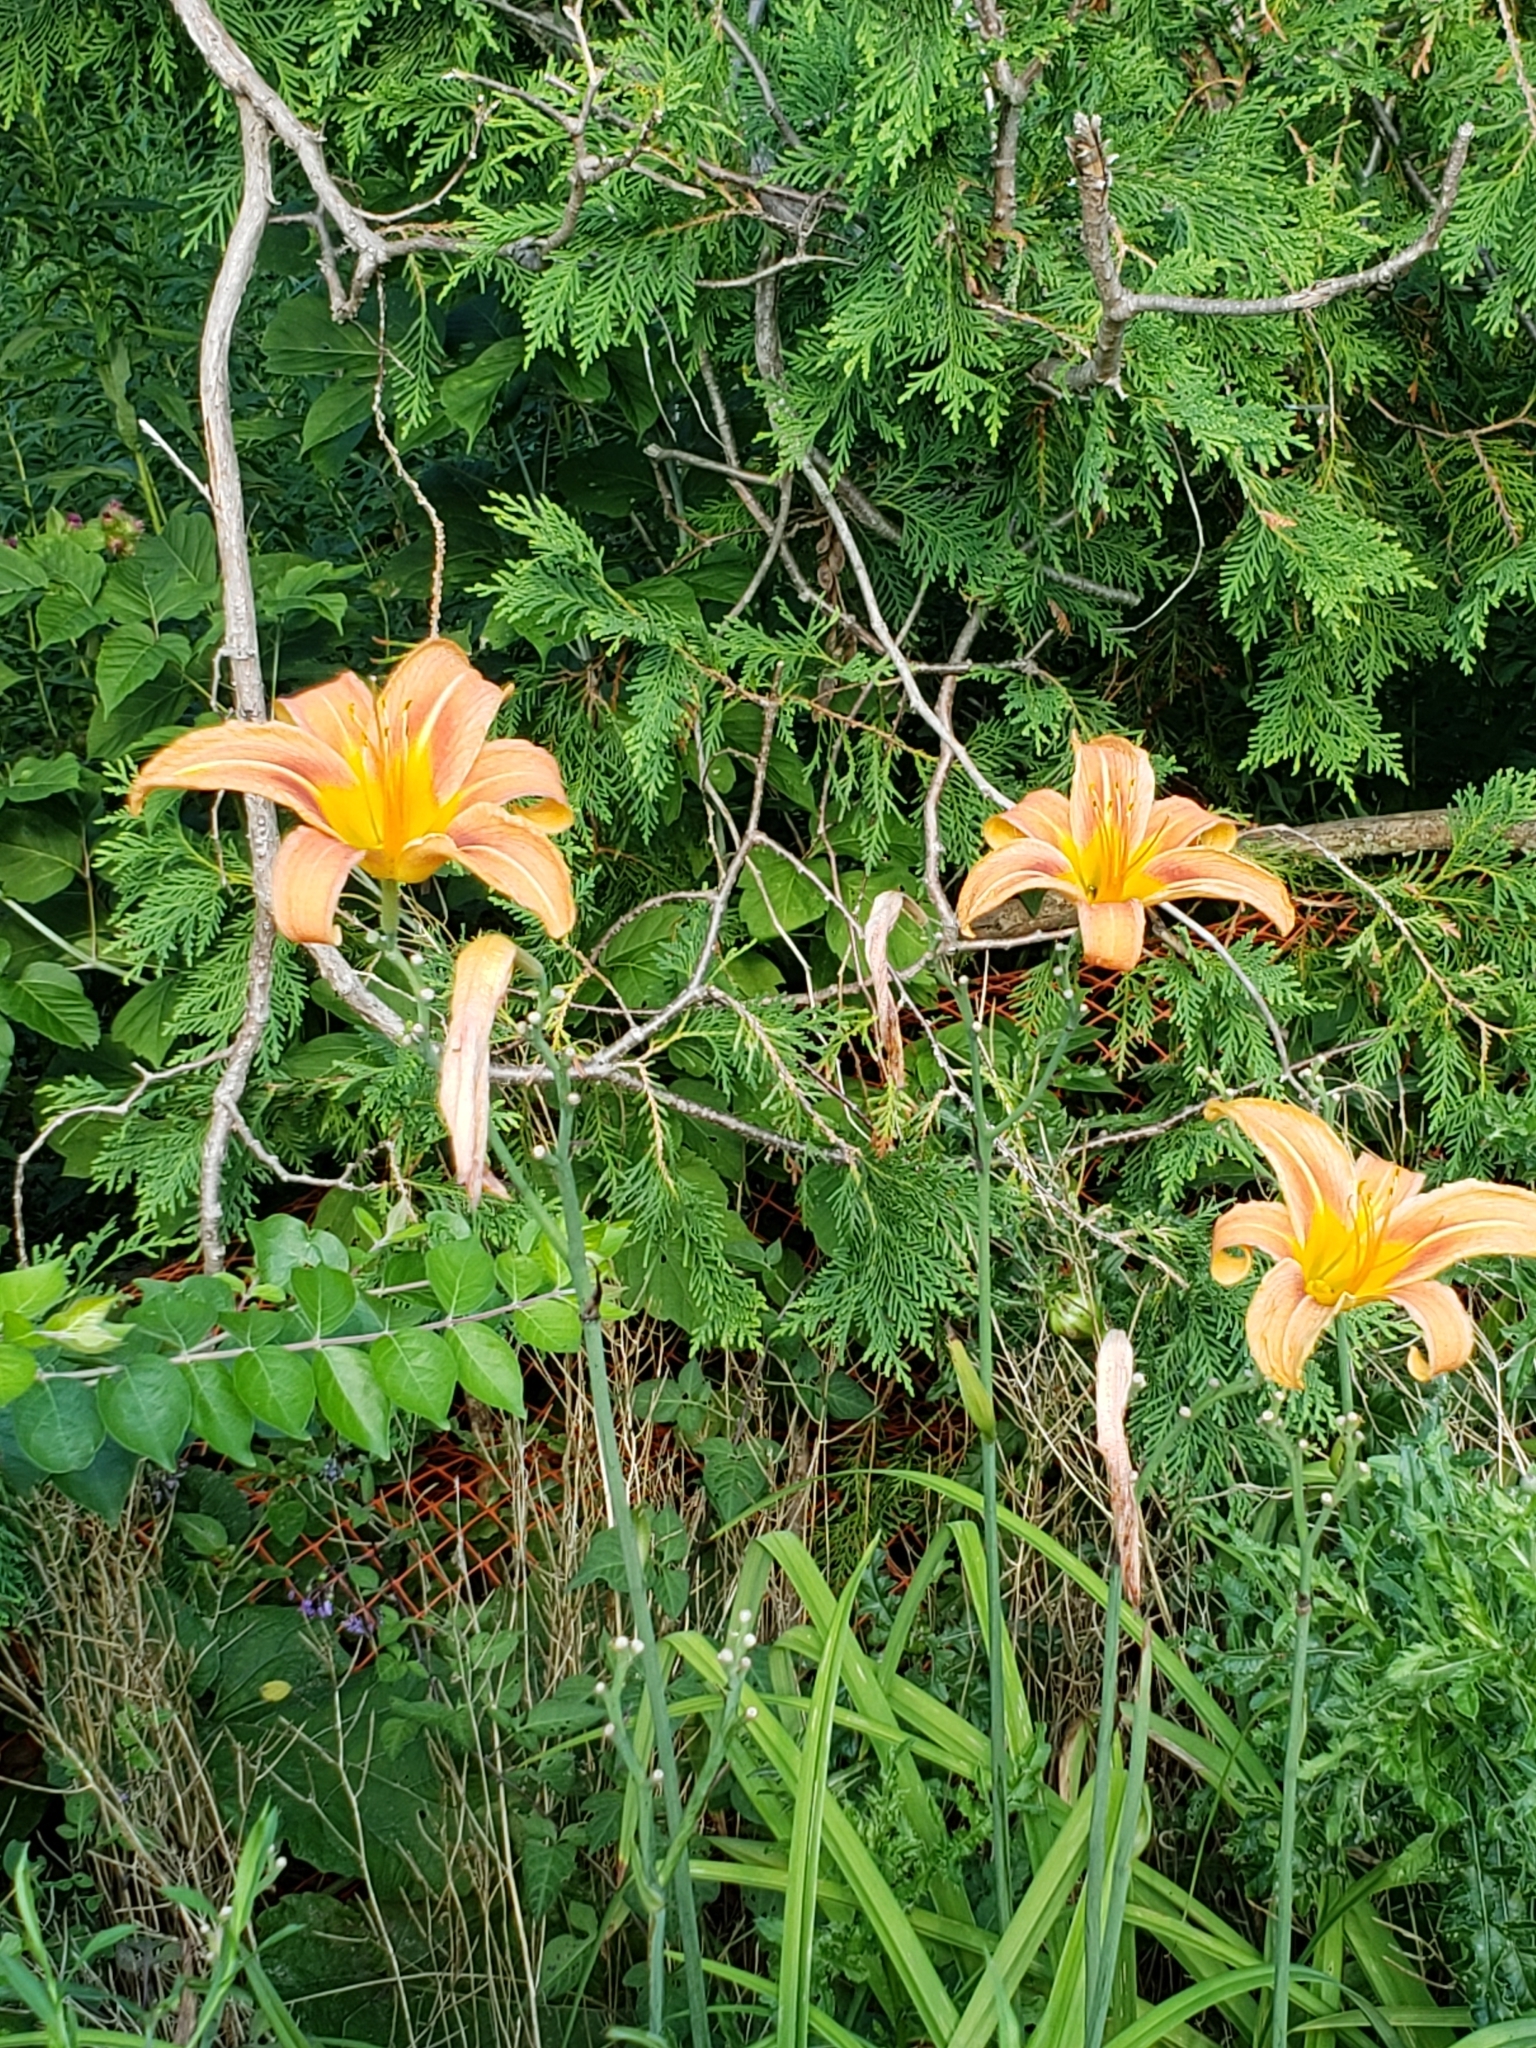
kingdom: Plantae
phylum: Tracheophyta
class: Liliopsida
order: Asparagales
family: Asphodelaceae
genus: Hemerocallis
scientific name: Hemerocallis fulva
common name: Orange day-lily
